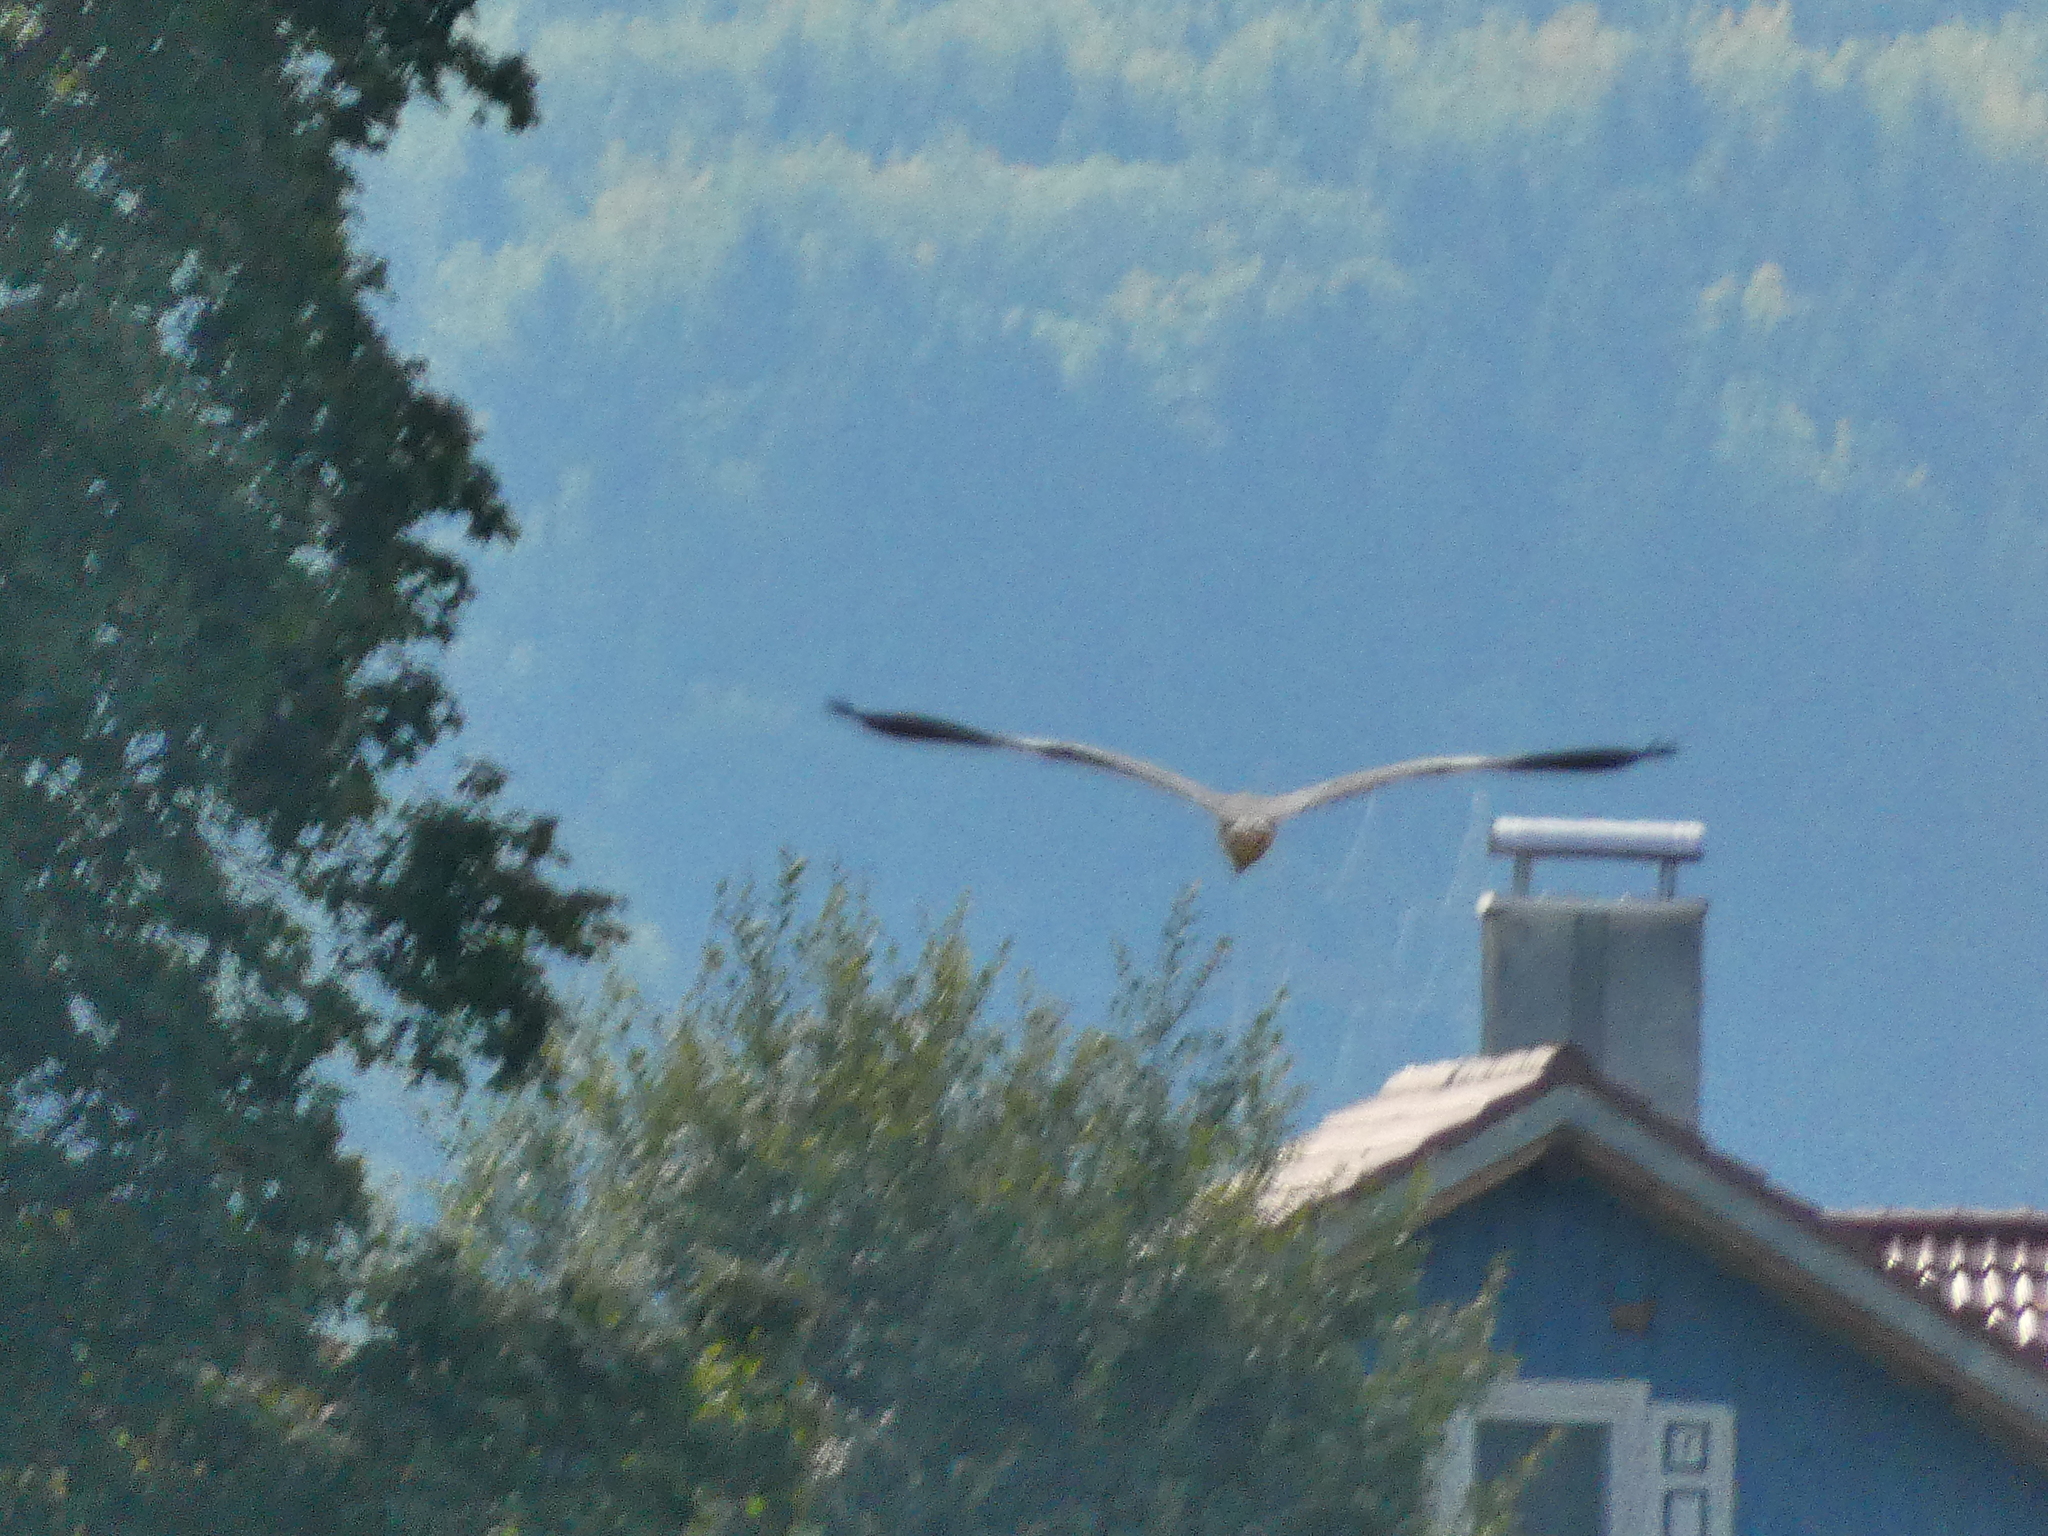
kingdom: Animalia
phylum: Chordata
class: Aves
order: Pelecaniformes
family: Ardeidae
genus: Ardea
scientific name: Ardea cinerea
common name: Grey heron
